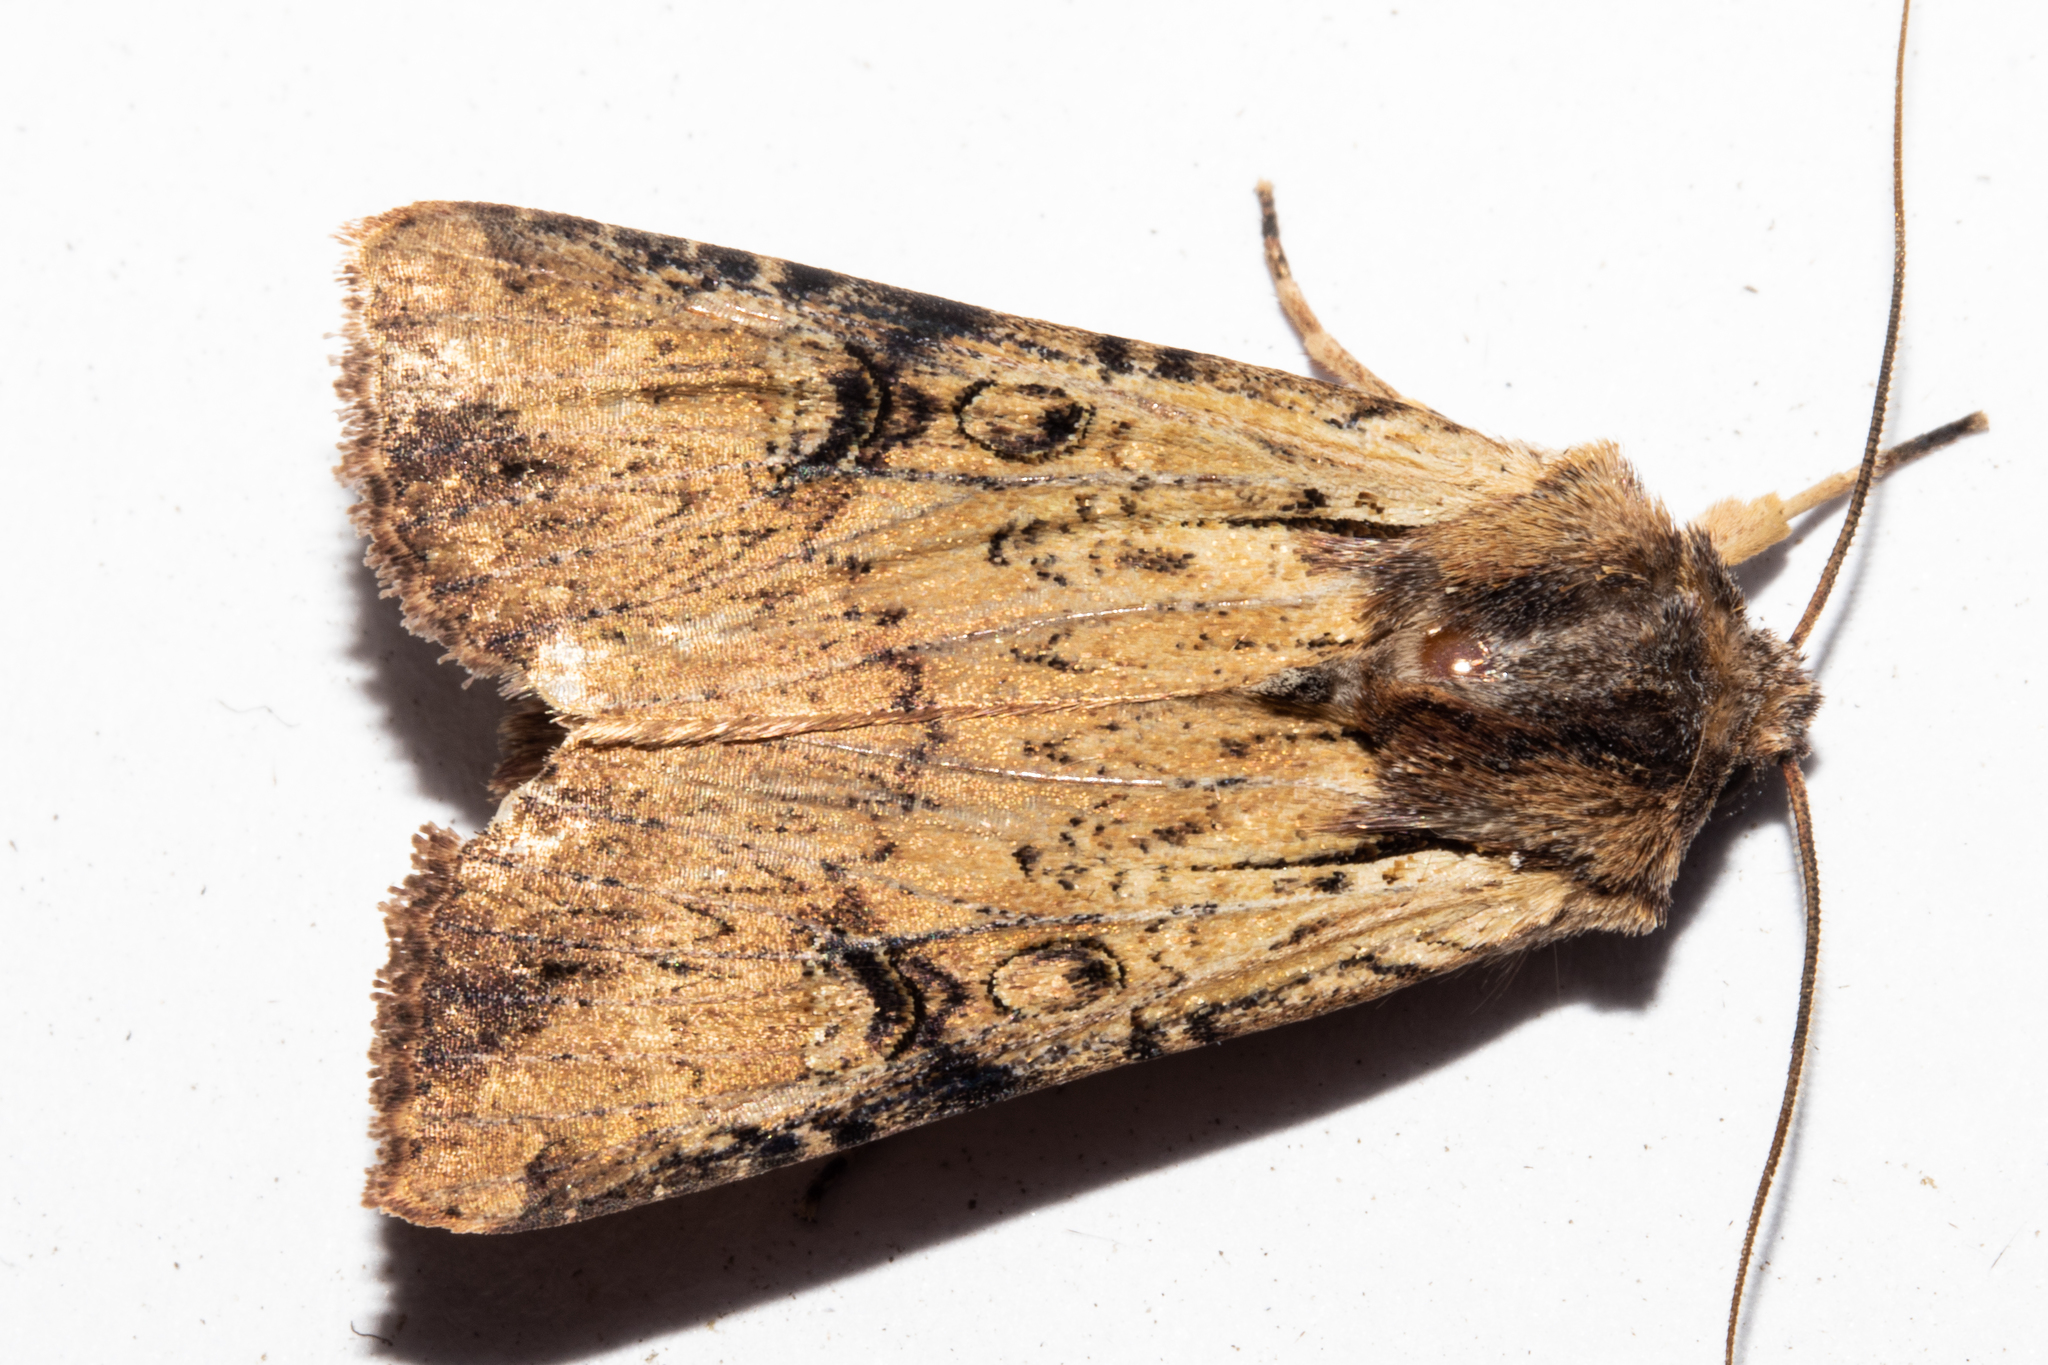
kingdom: Animalia
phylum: Arthropoda
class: Insecta
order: Lepidoptera
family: Noctuidae
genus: Ichneutica
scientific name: Ichneutica omoplaca
